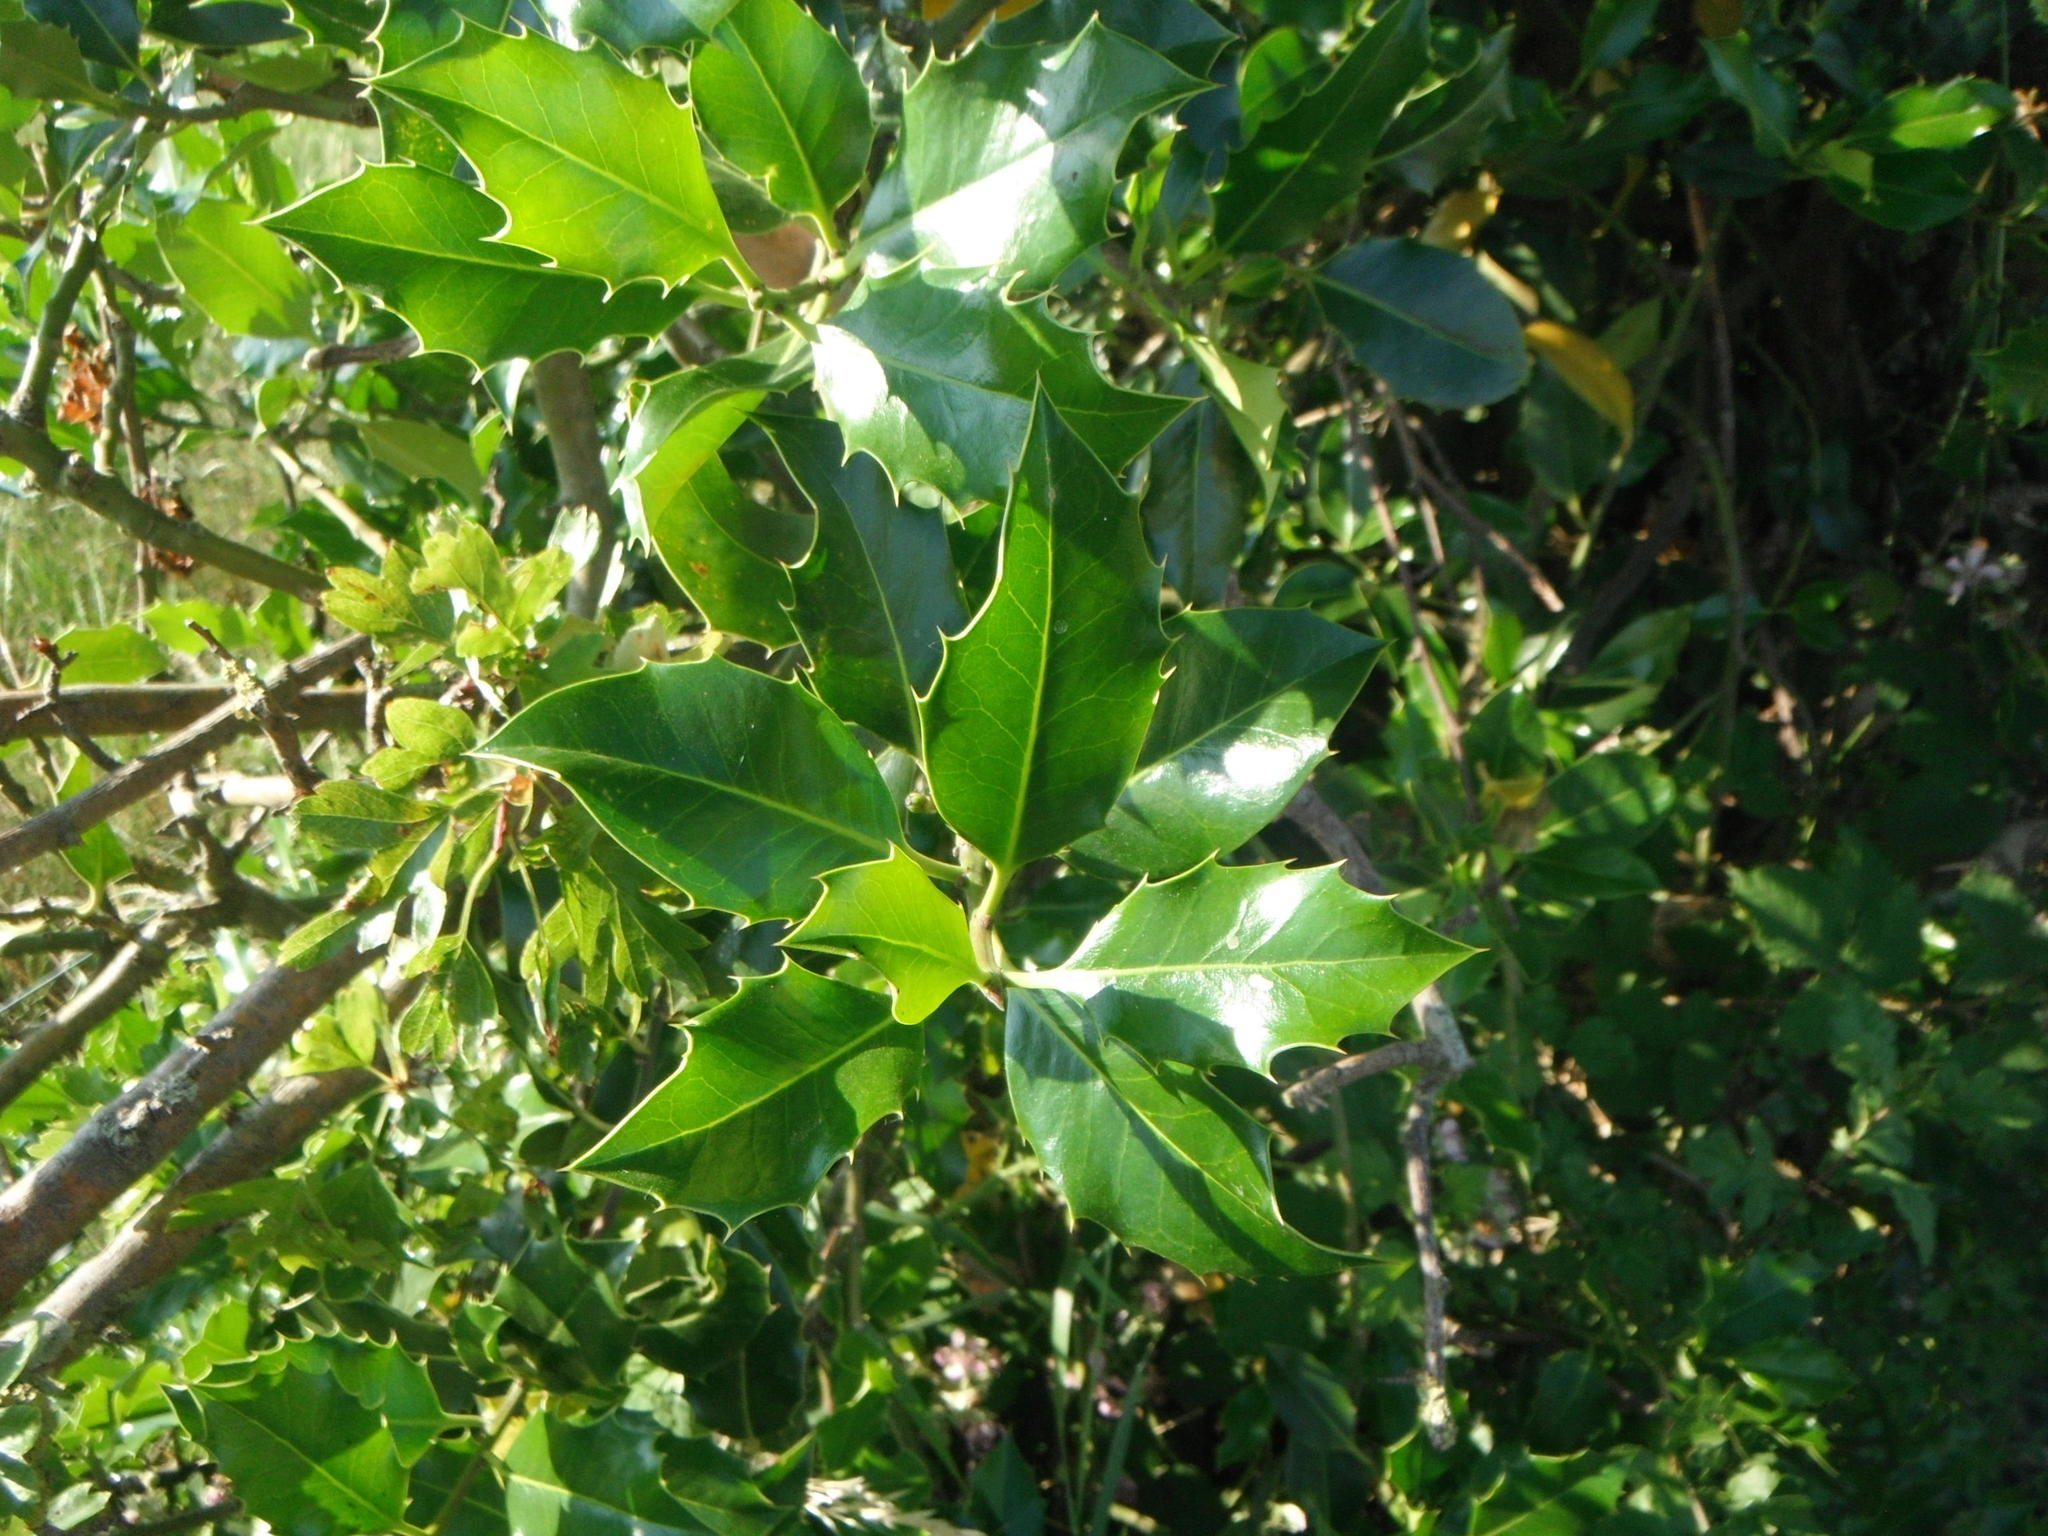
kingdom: Plantae
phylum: Tracheophyta
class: Magnoliopsida
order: Aquifoliales
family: Aquifoliaceae
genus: Ilex
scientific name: Ilex aquifolium
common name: English holly
